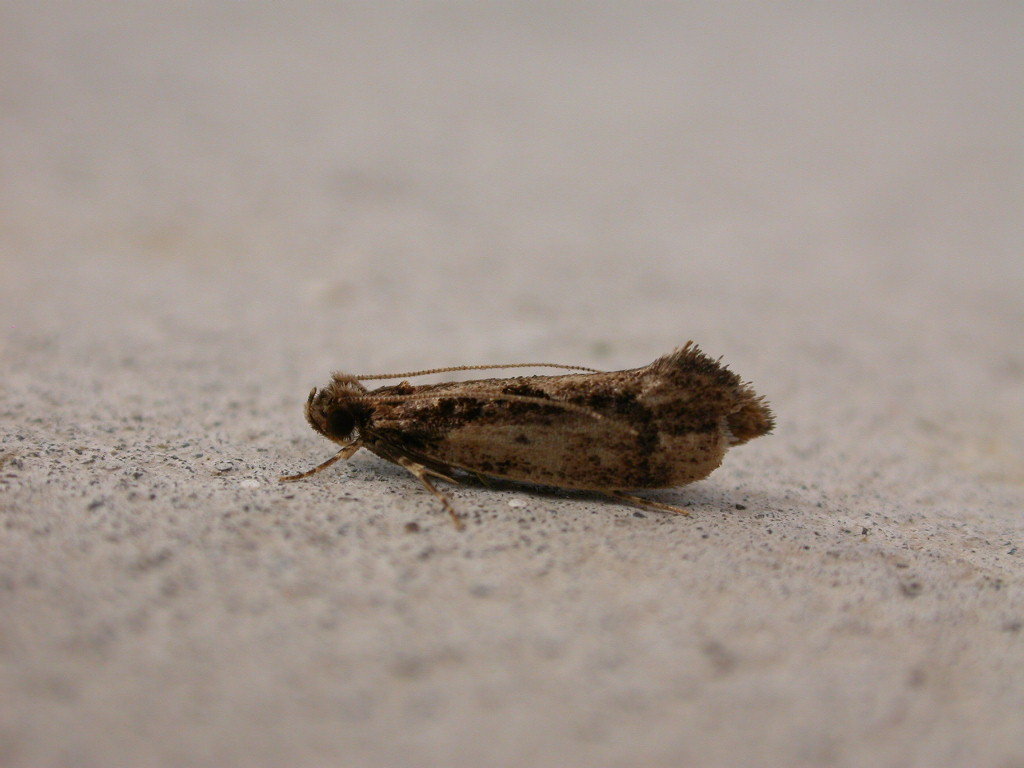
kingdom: Animalia
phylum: Arthropoda
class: Insecta
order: Lepidoptera
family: Tineidae
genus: Erechthias
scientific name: Erechthias capnitis
